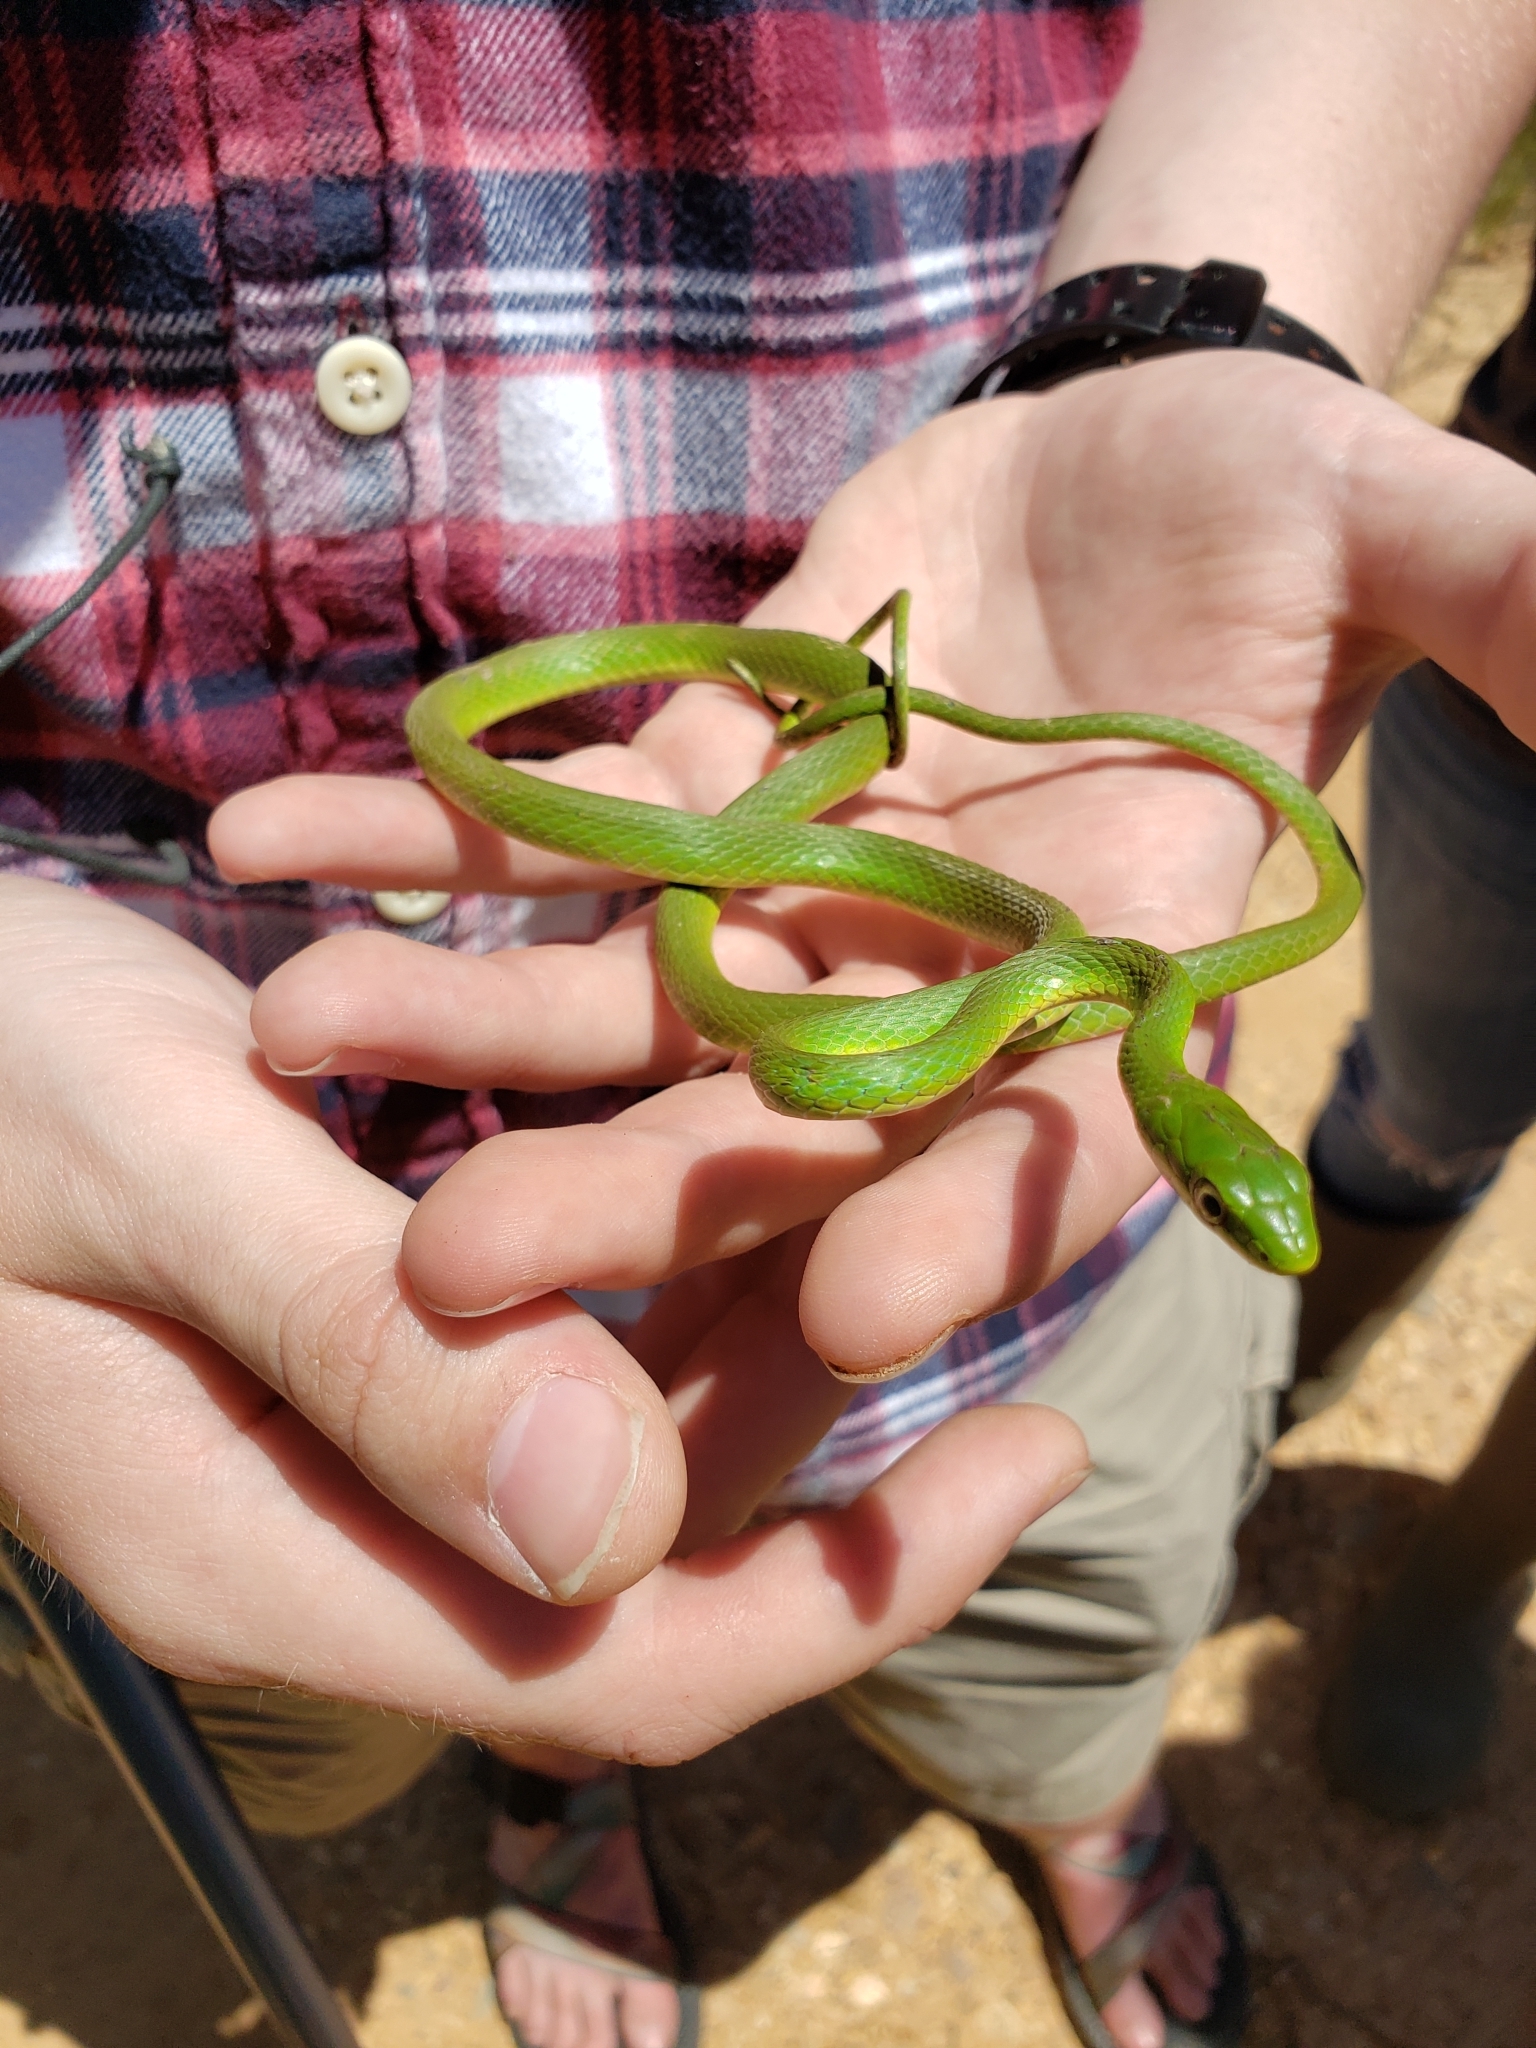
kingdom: Animalia
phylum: Chordata
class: Squamata
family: Colubridae
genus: Opheodrys
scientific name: Opheodrys aestivus
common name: Rough greensnake
